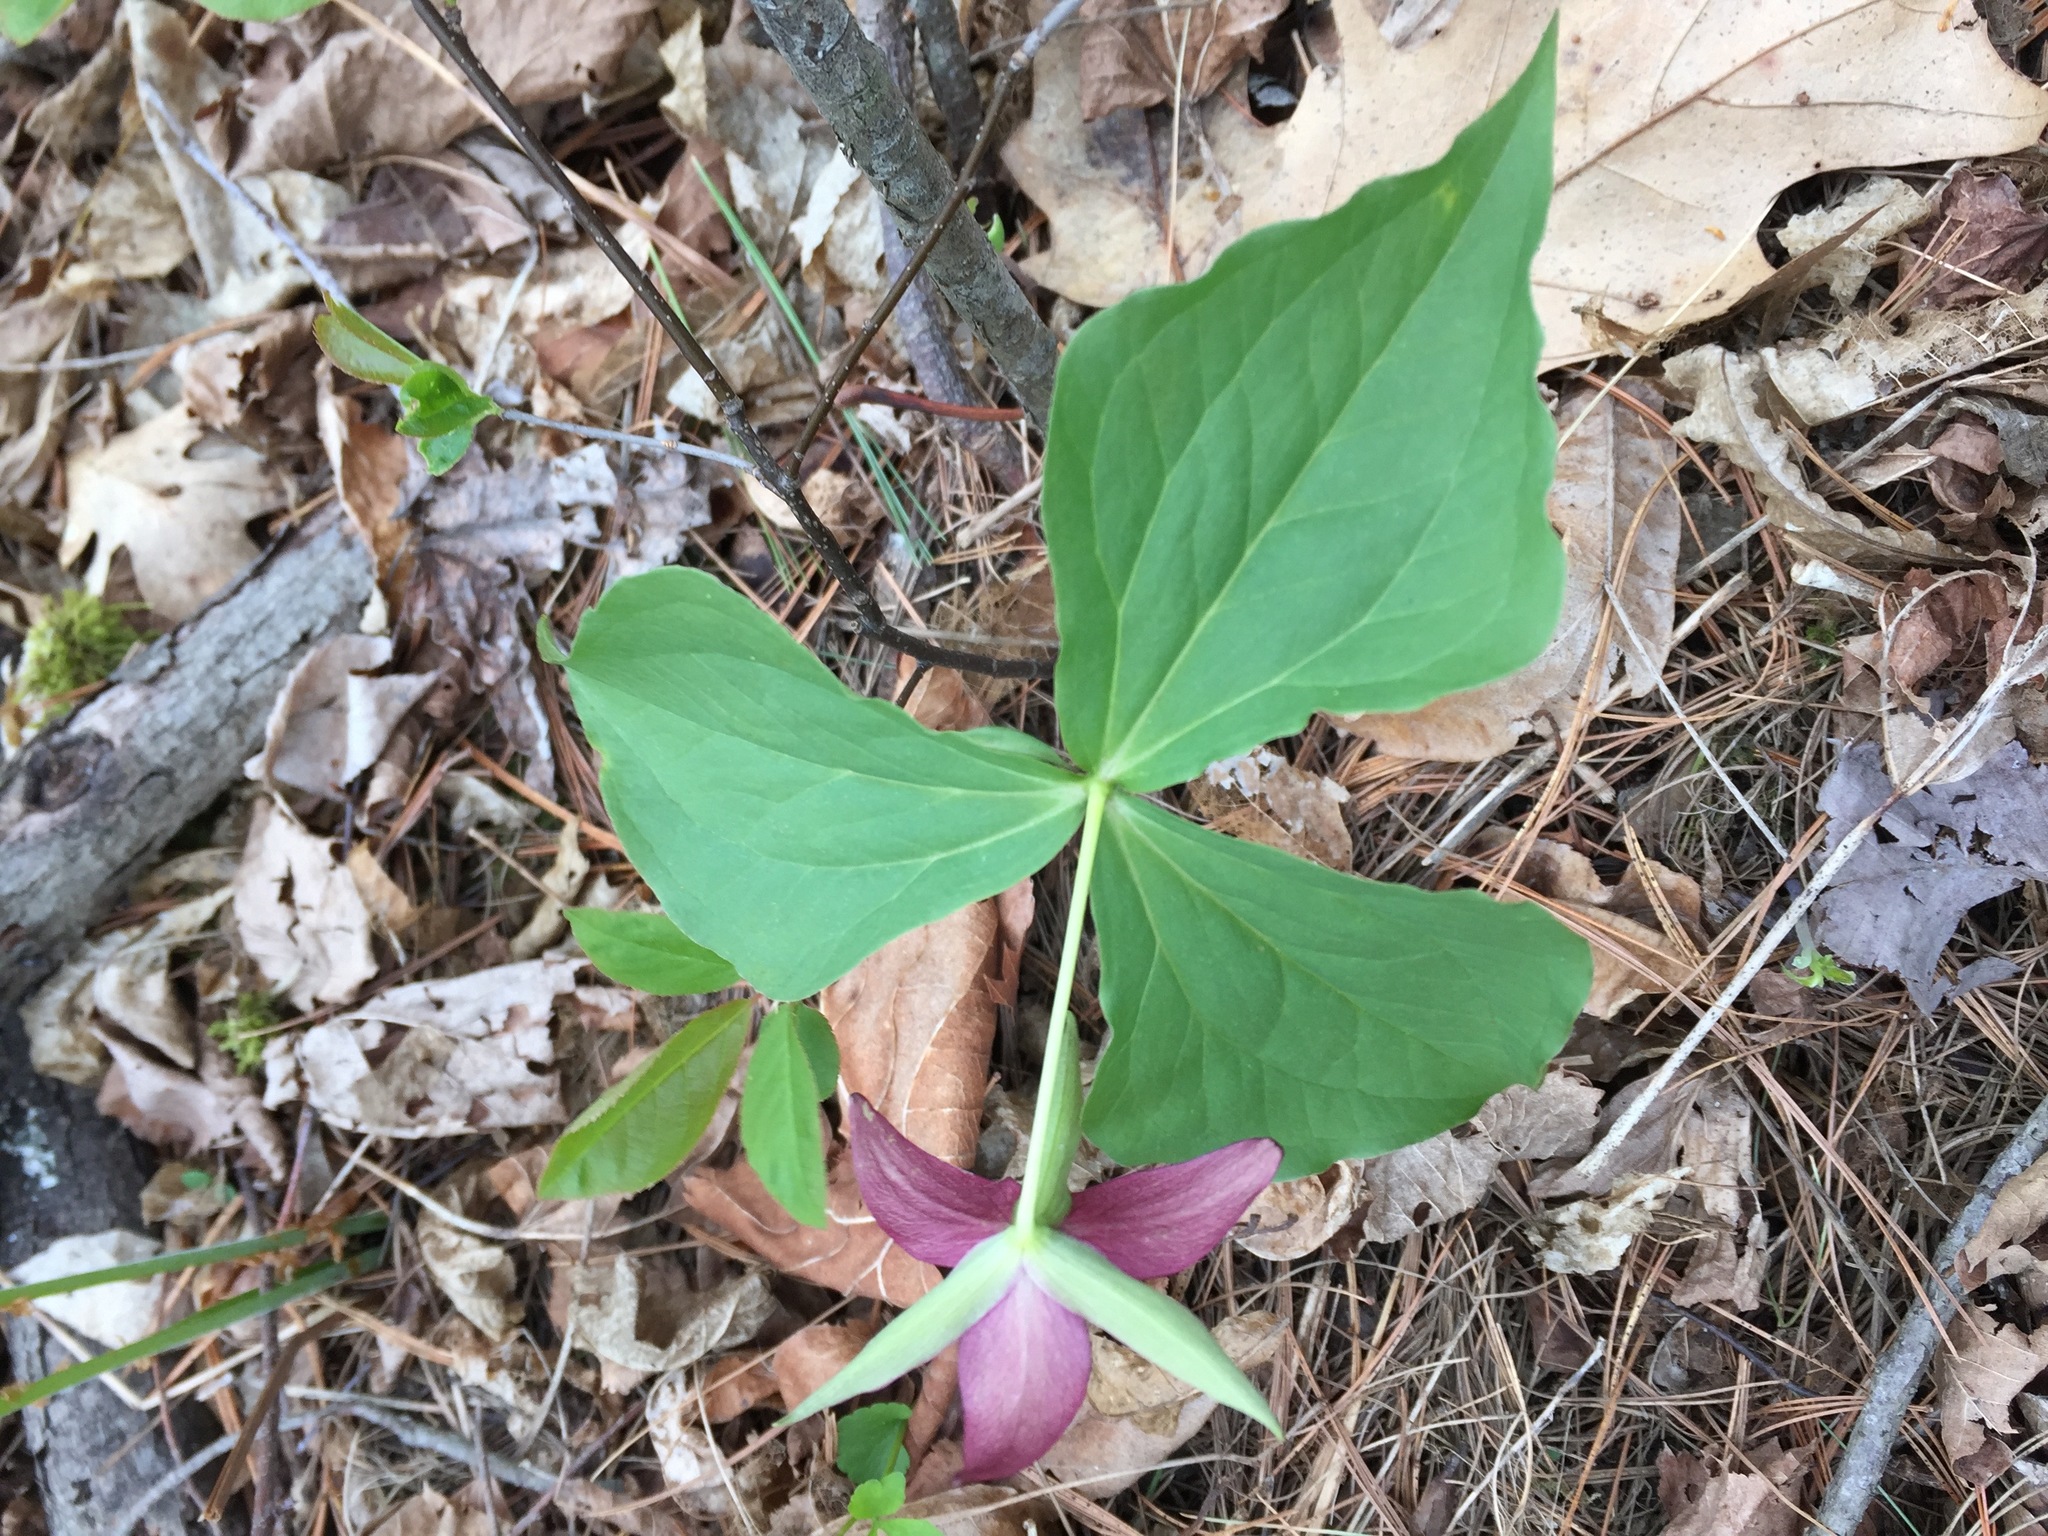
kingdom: Plantae
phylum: Tracheophyta
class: Liliopsida
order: Liliales
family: Melanthiaceae
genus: Trillium
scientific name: Trillium erectum
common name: Purple trillium
